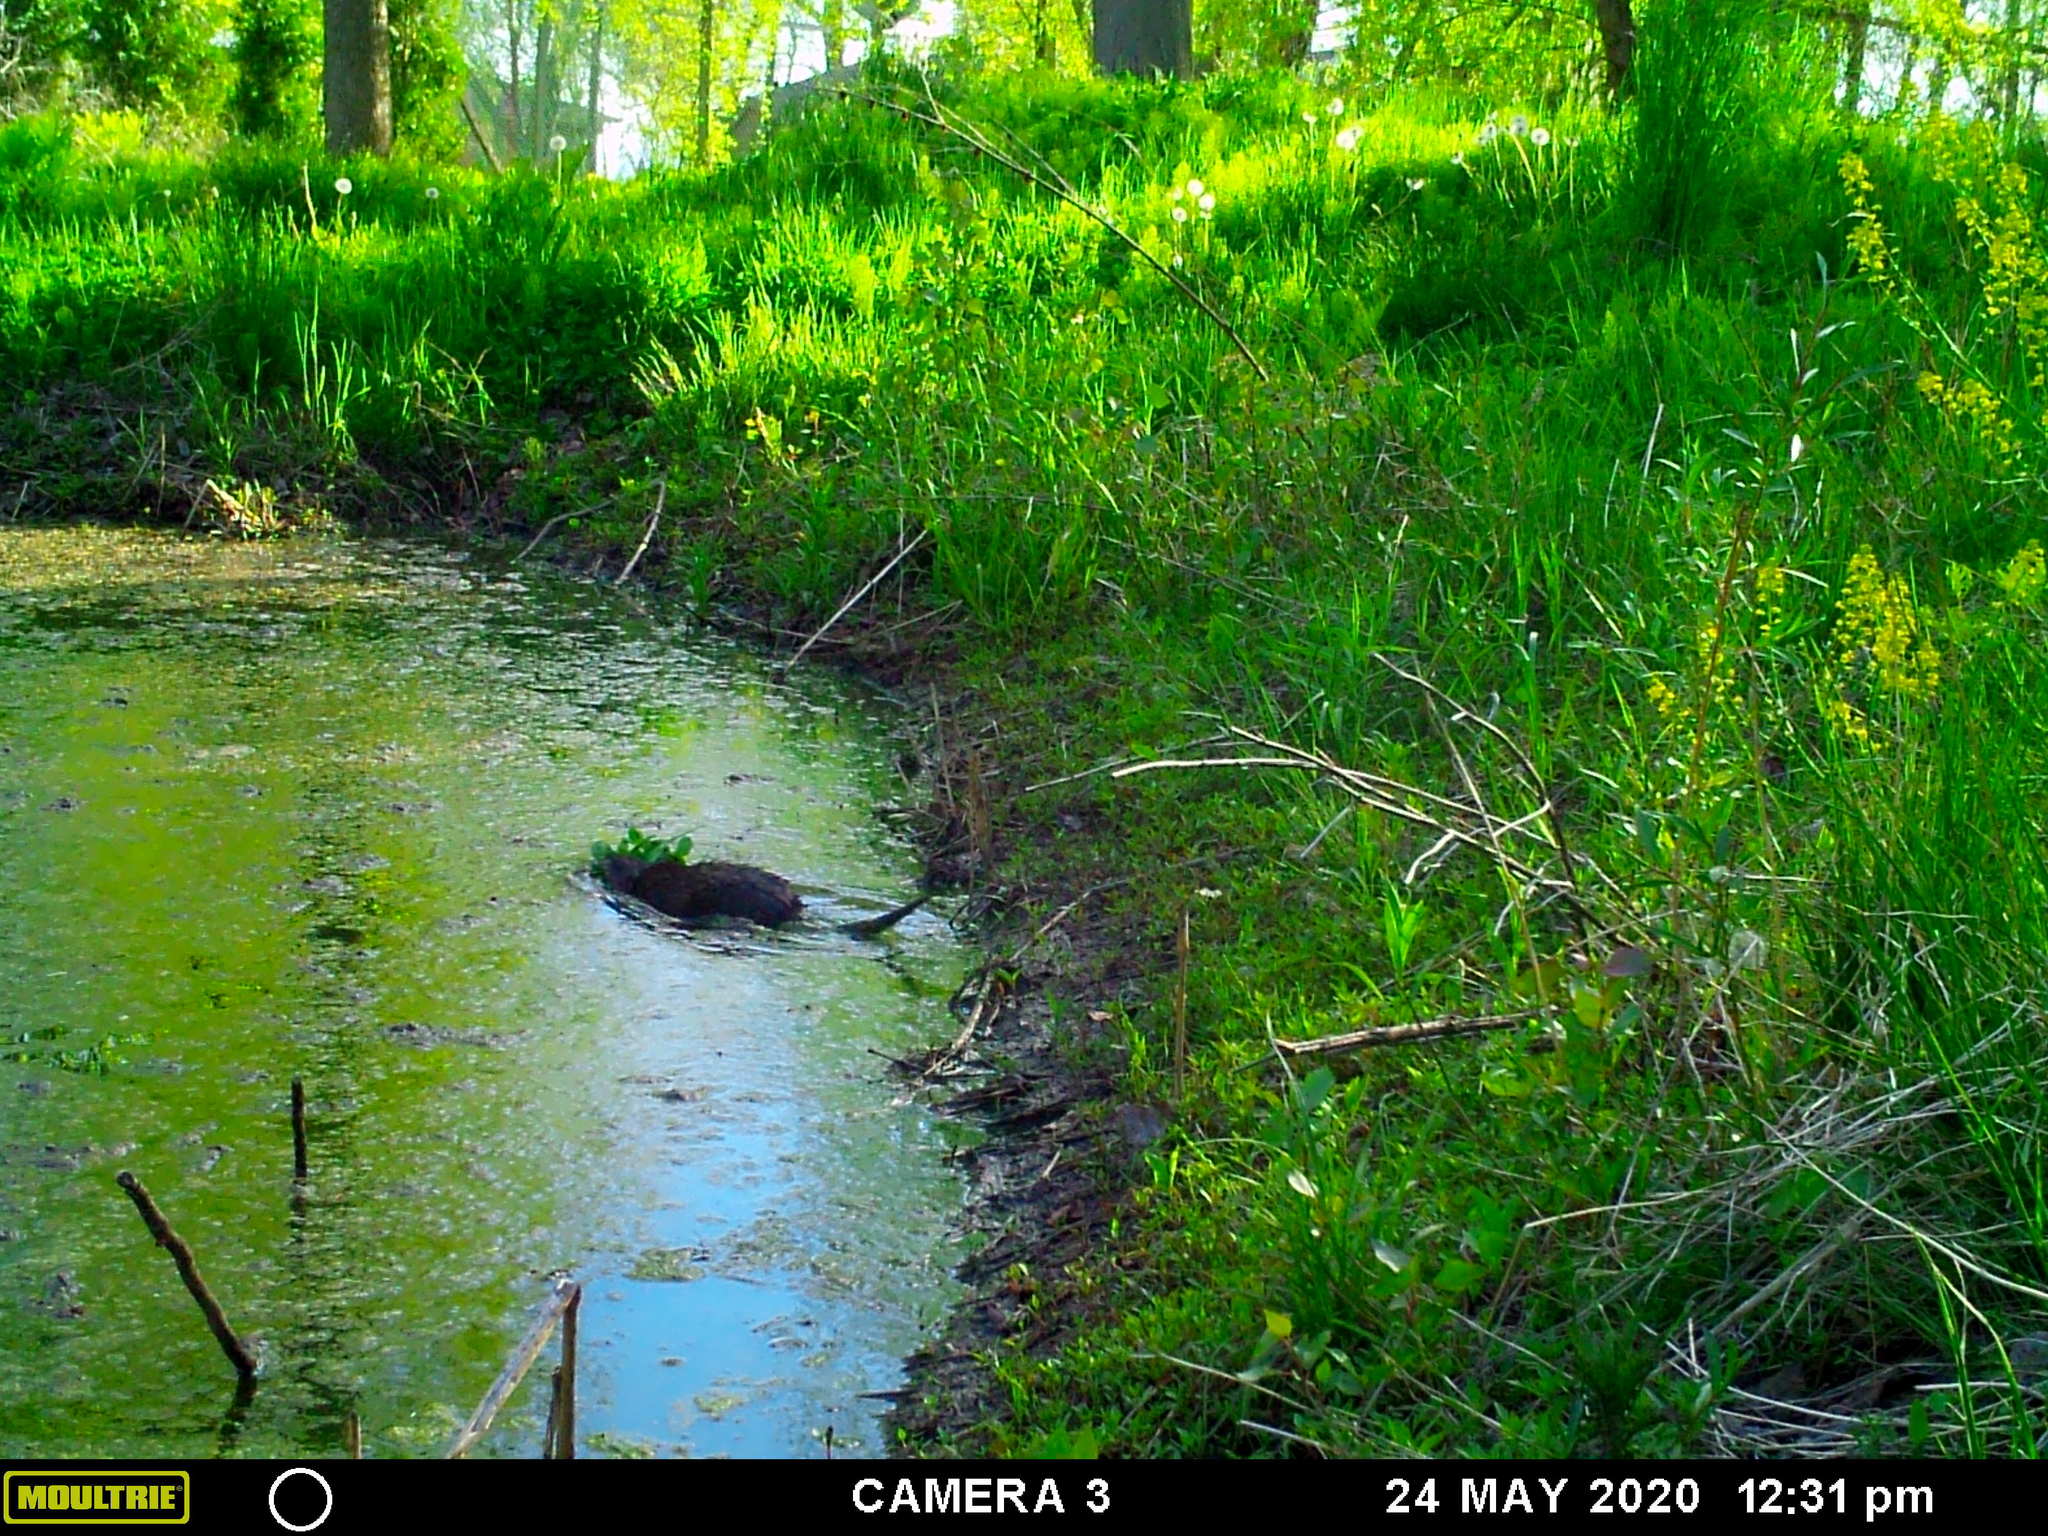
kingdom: Animalia
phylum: Chordata
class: Mammalia
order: Rodentia
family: Cricetidae
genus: Ondatra
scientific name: Ondatra zibethicus
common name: Muskrat
